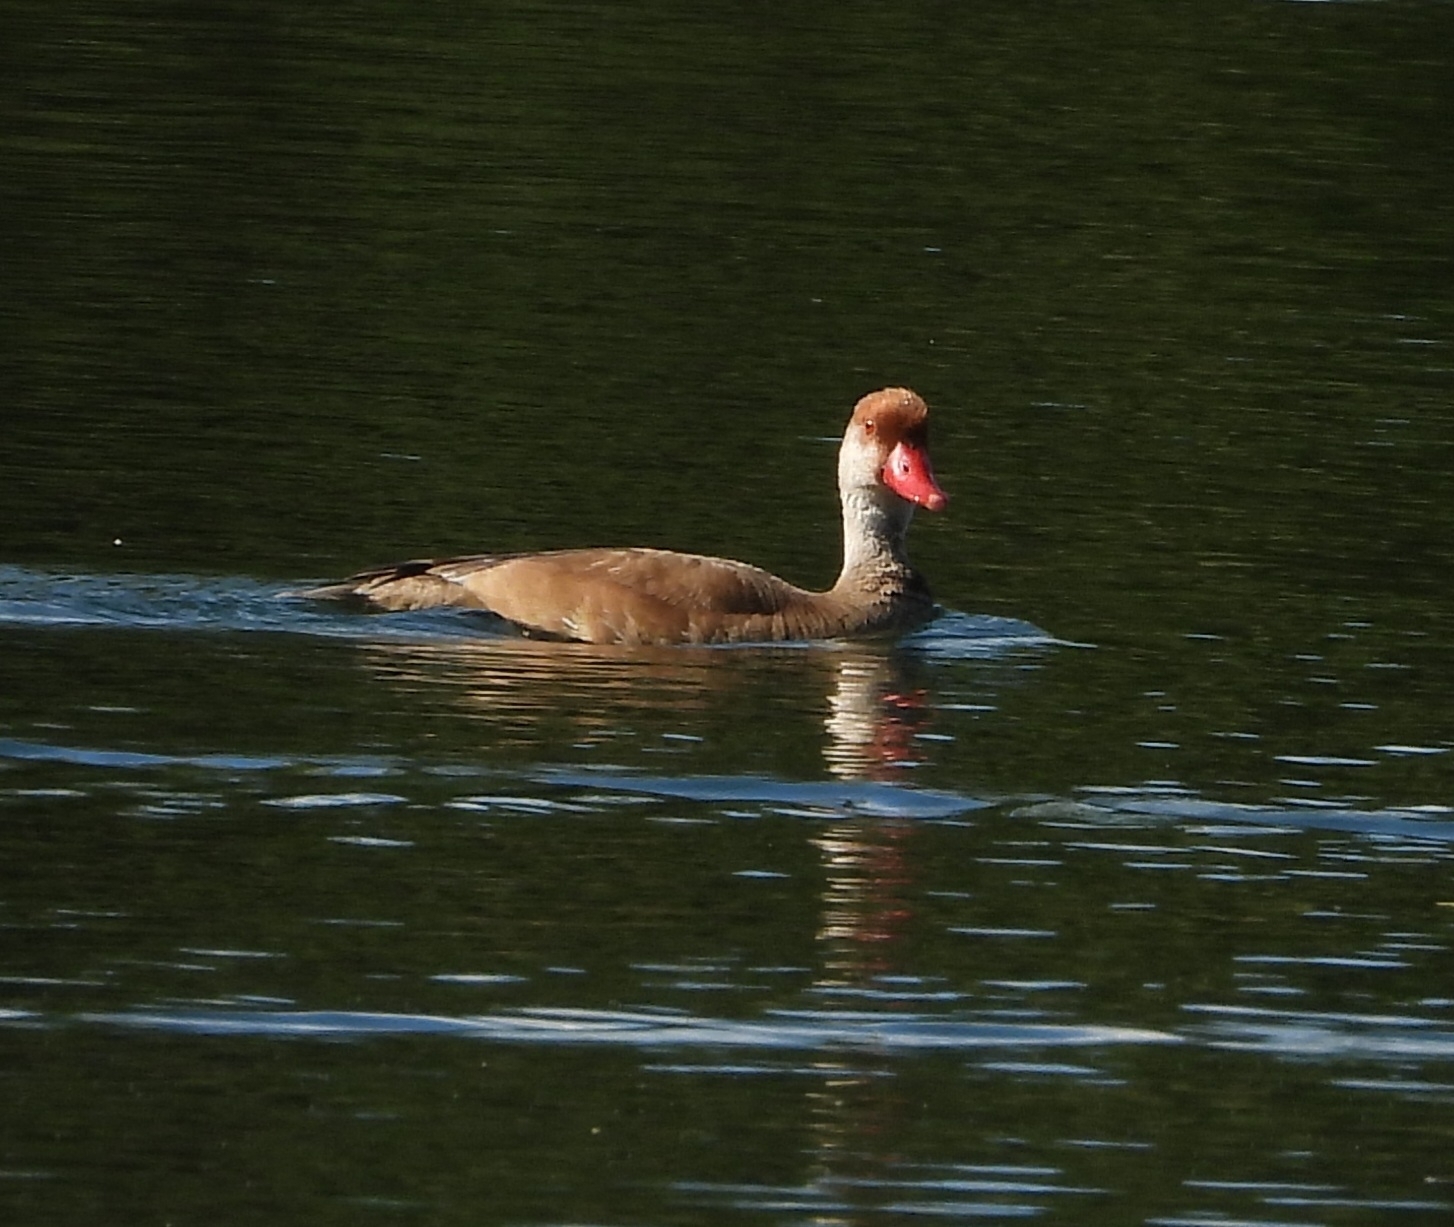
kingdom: Animalia
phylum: Chordata
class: Aves
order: Anseriformes
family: Anatidae
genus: Netta
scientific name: Netta rufina
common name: Red-crested pochard
